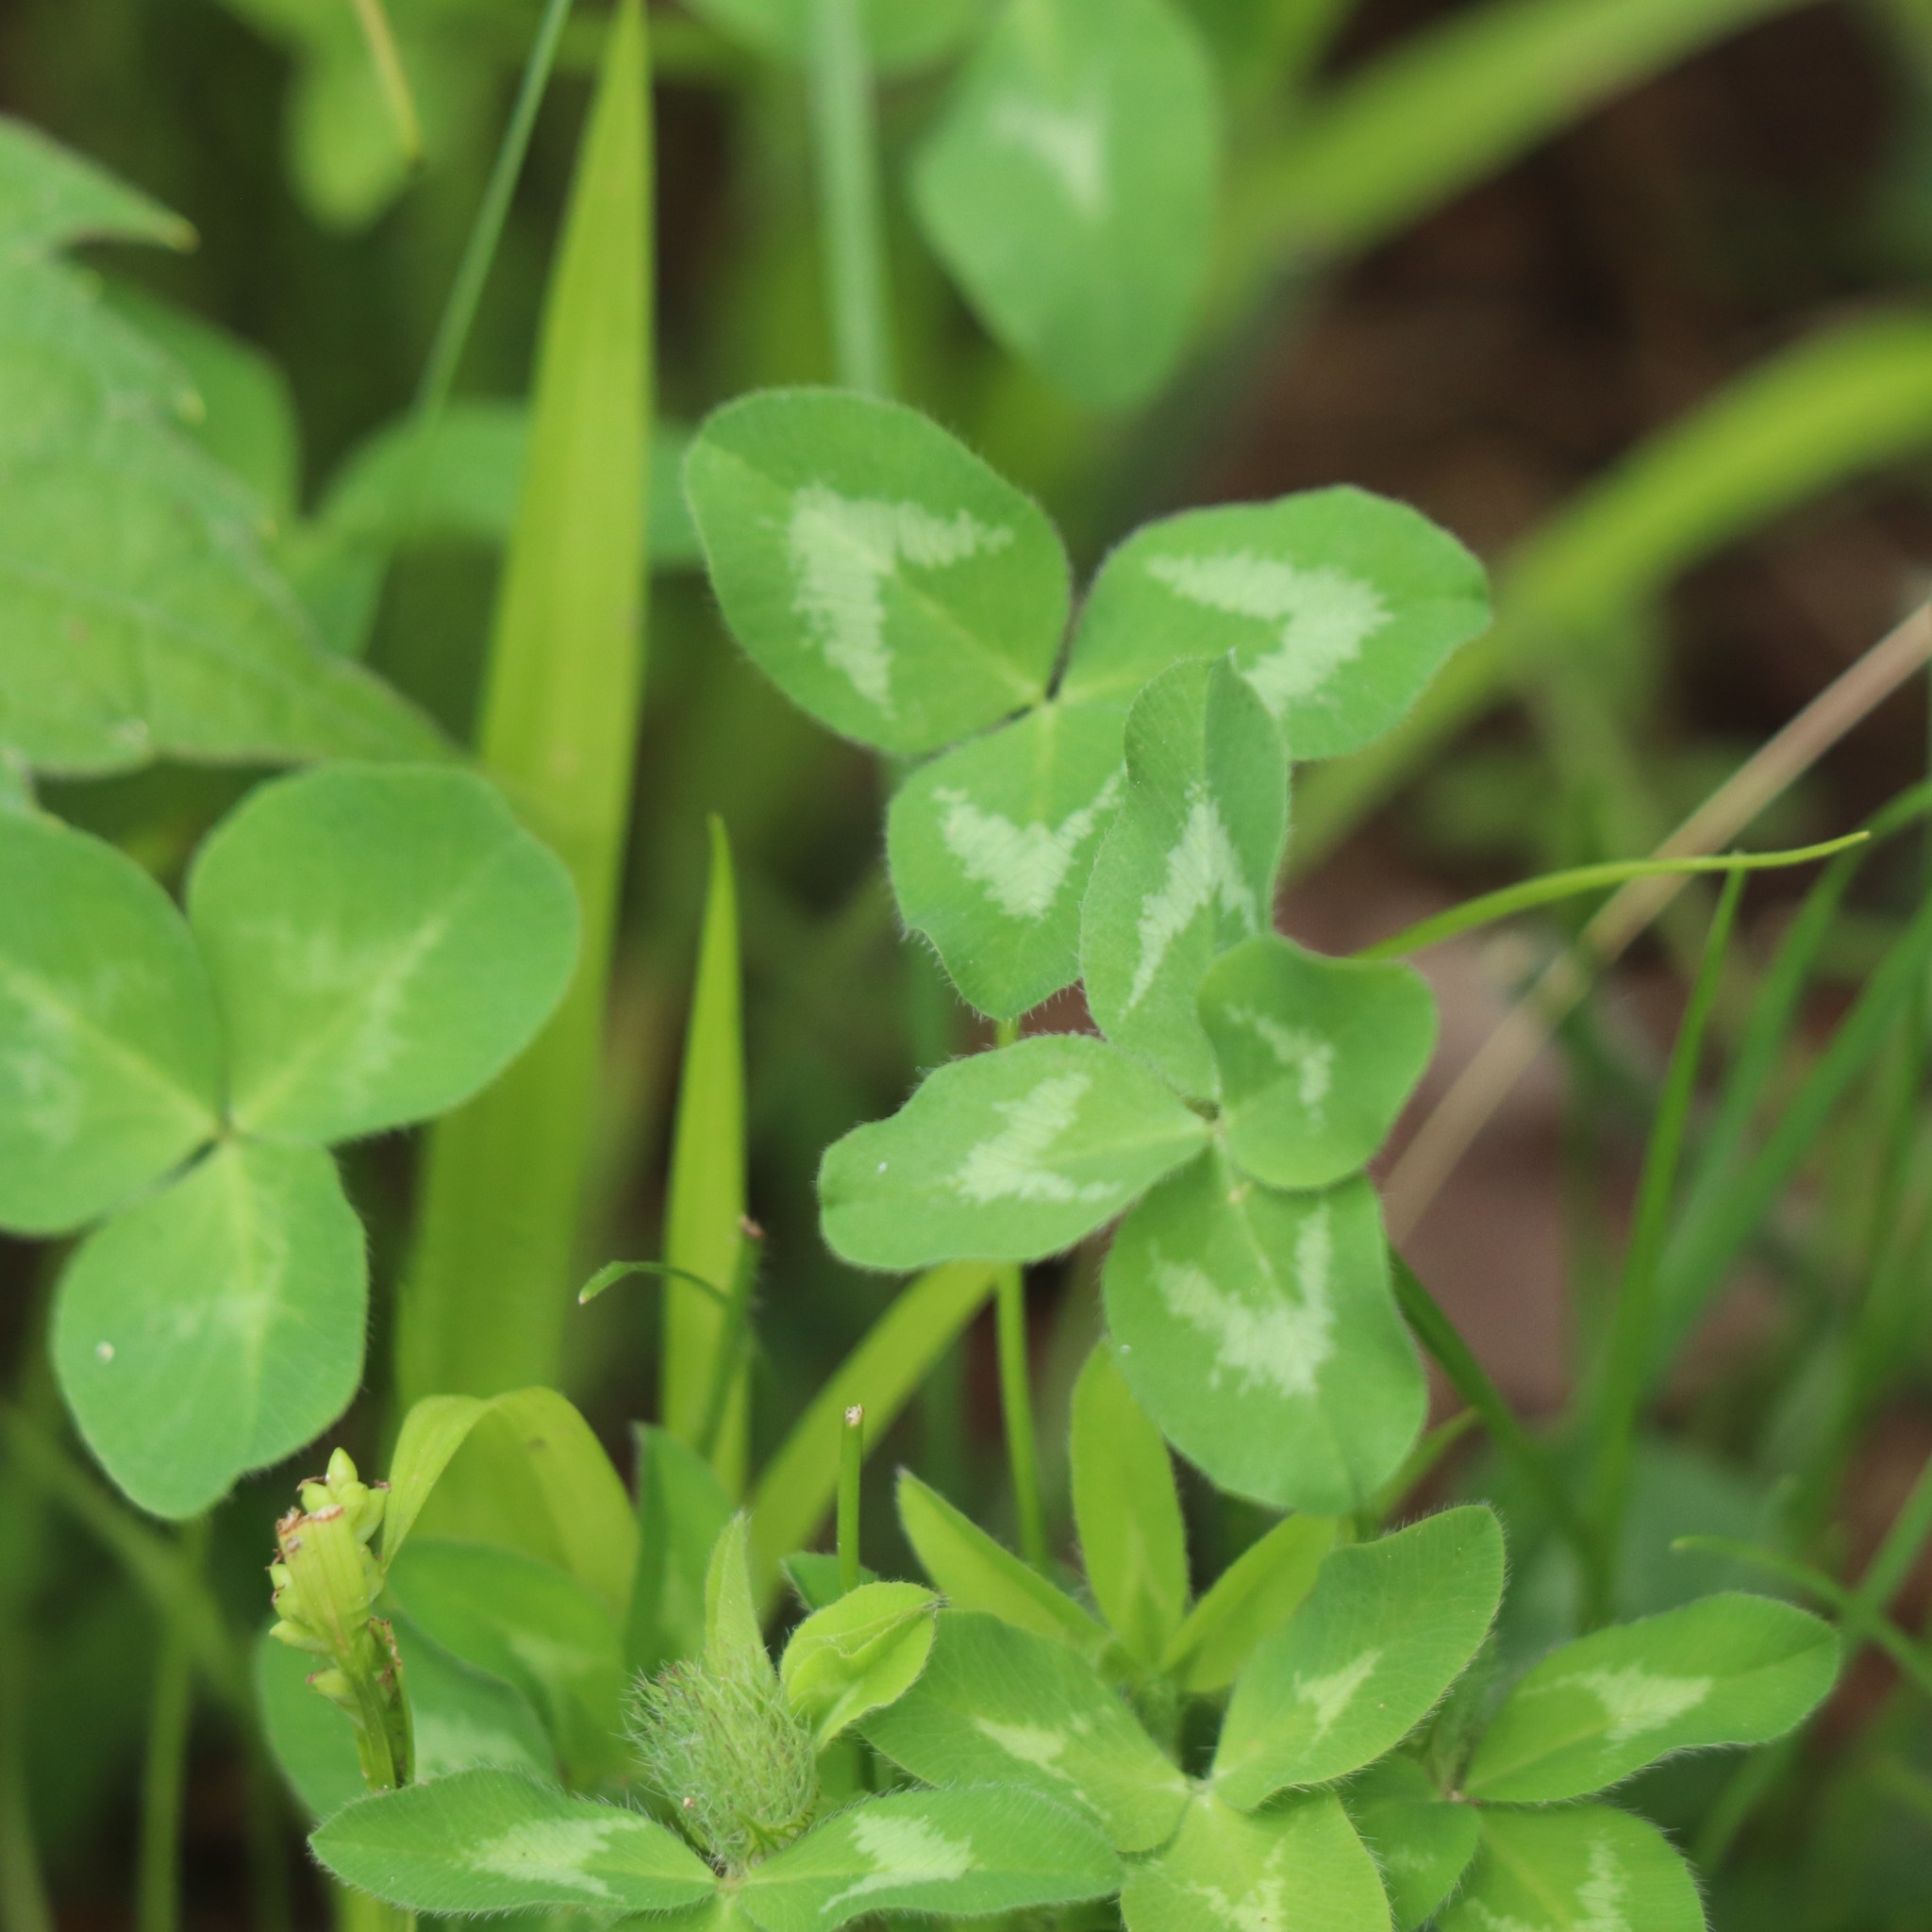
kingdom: Plantae
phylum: Tracheophyta
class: Magnoliopsida
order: Fabales
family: Fabaceae
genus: Trifolium
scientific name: Trifolium pratense
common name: Red clover
